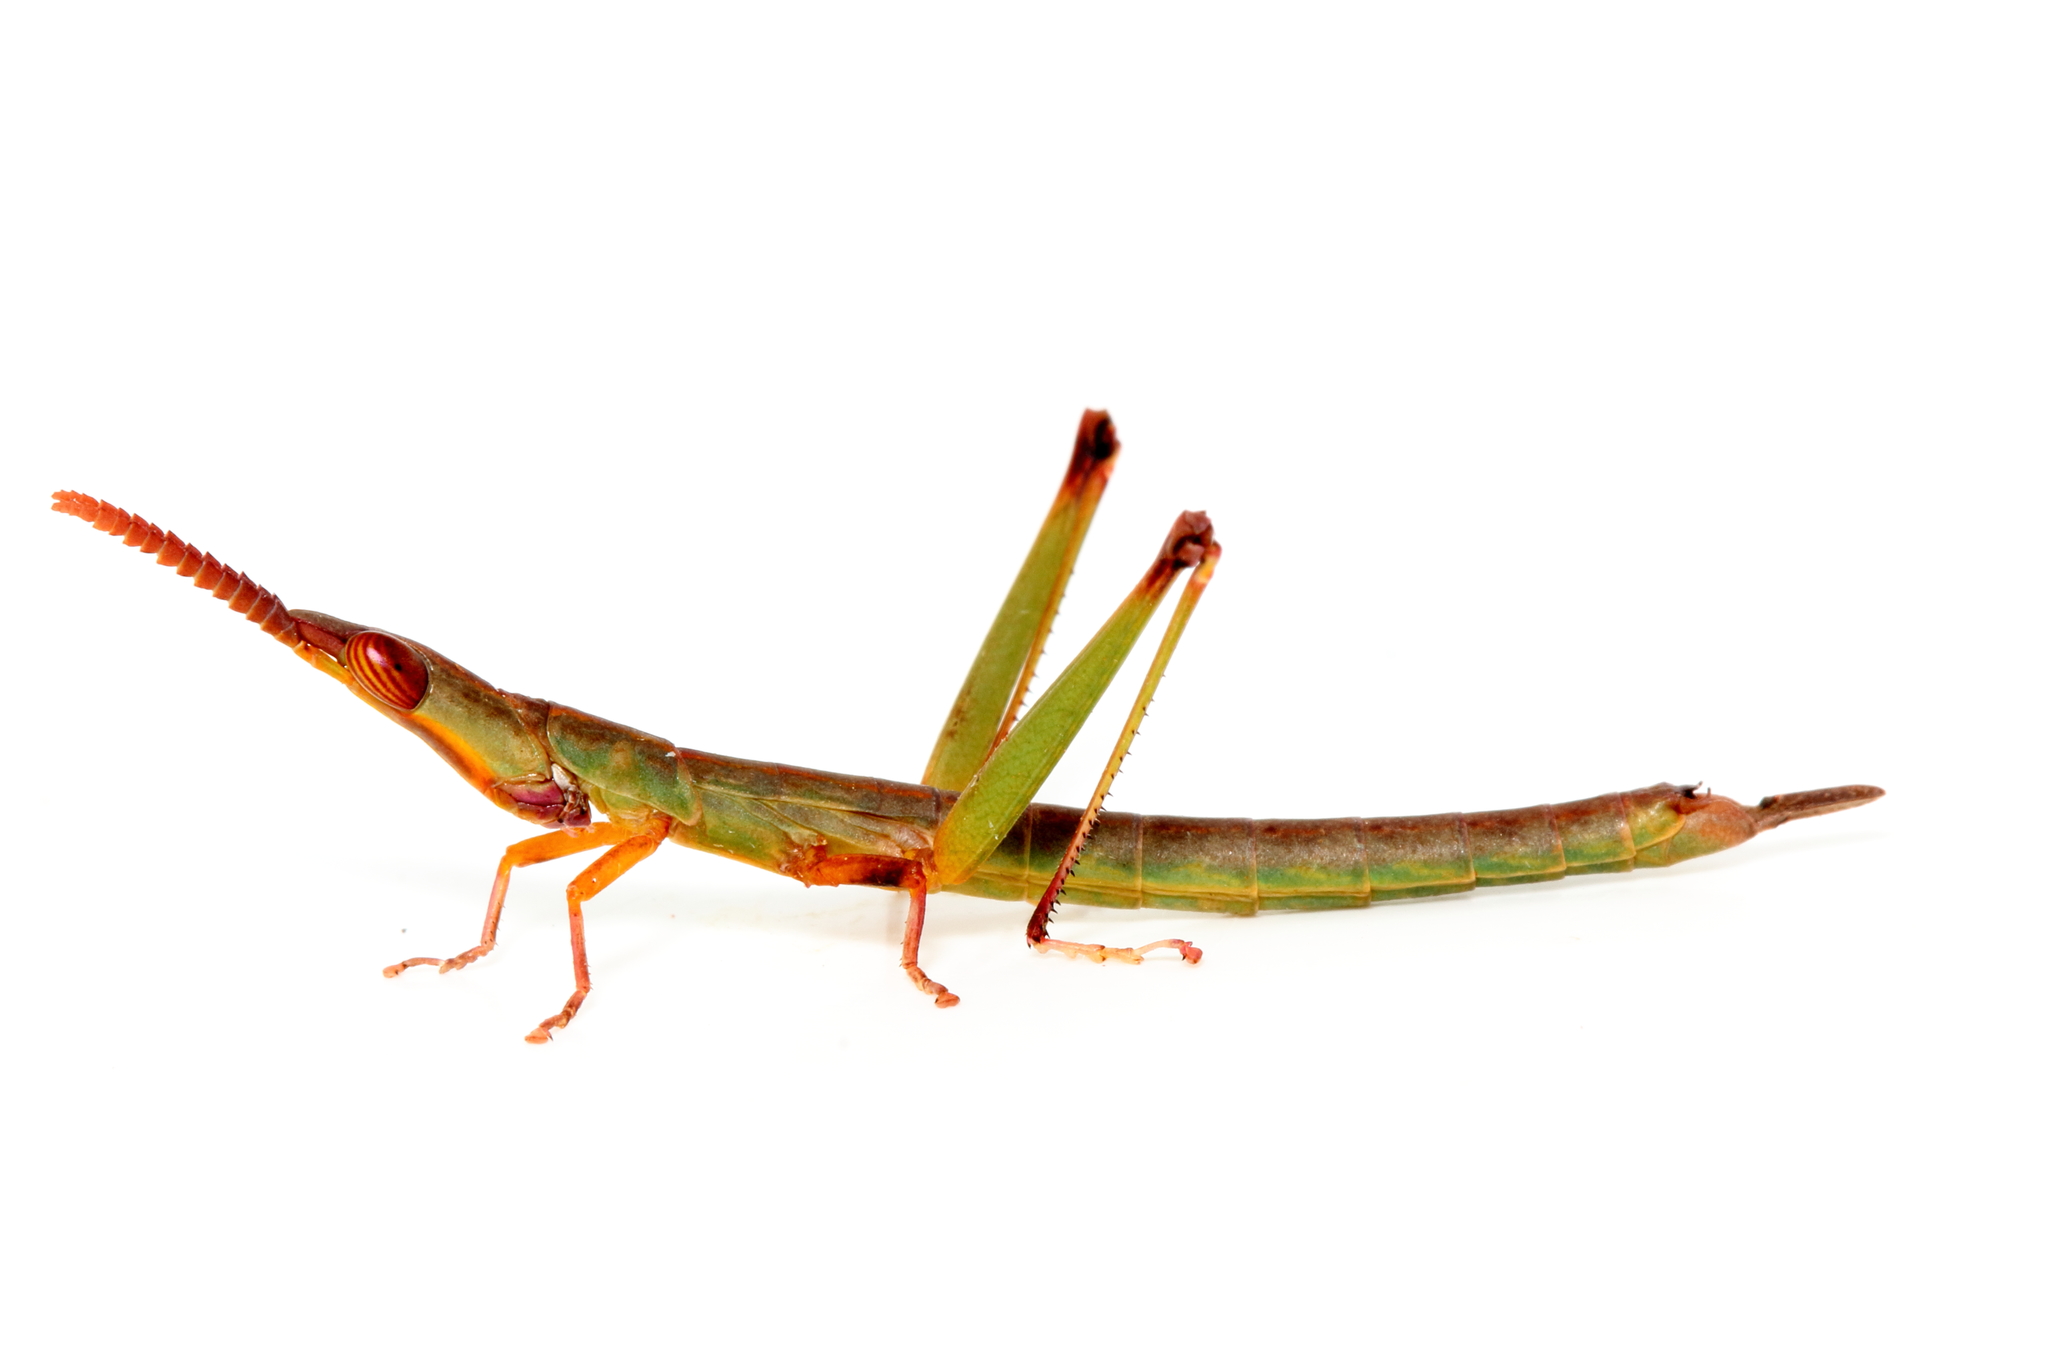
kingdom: Animalia
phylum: Arthropoda
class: Insecta
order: Orthoptera
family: Morabidae
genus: Warramaba
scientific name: Warramaba whitei
